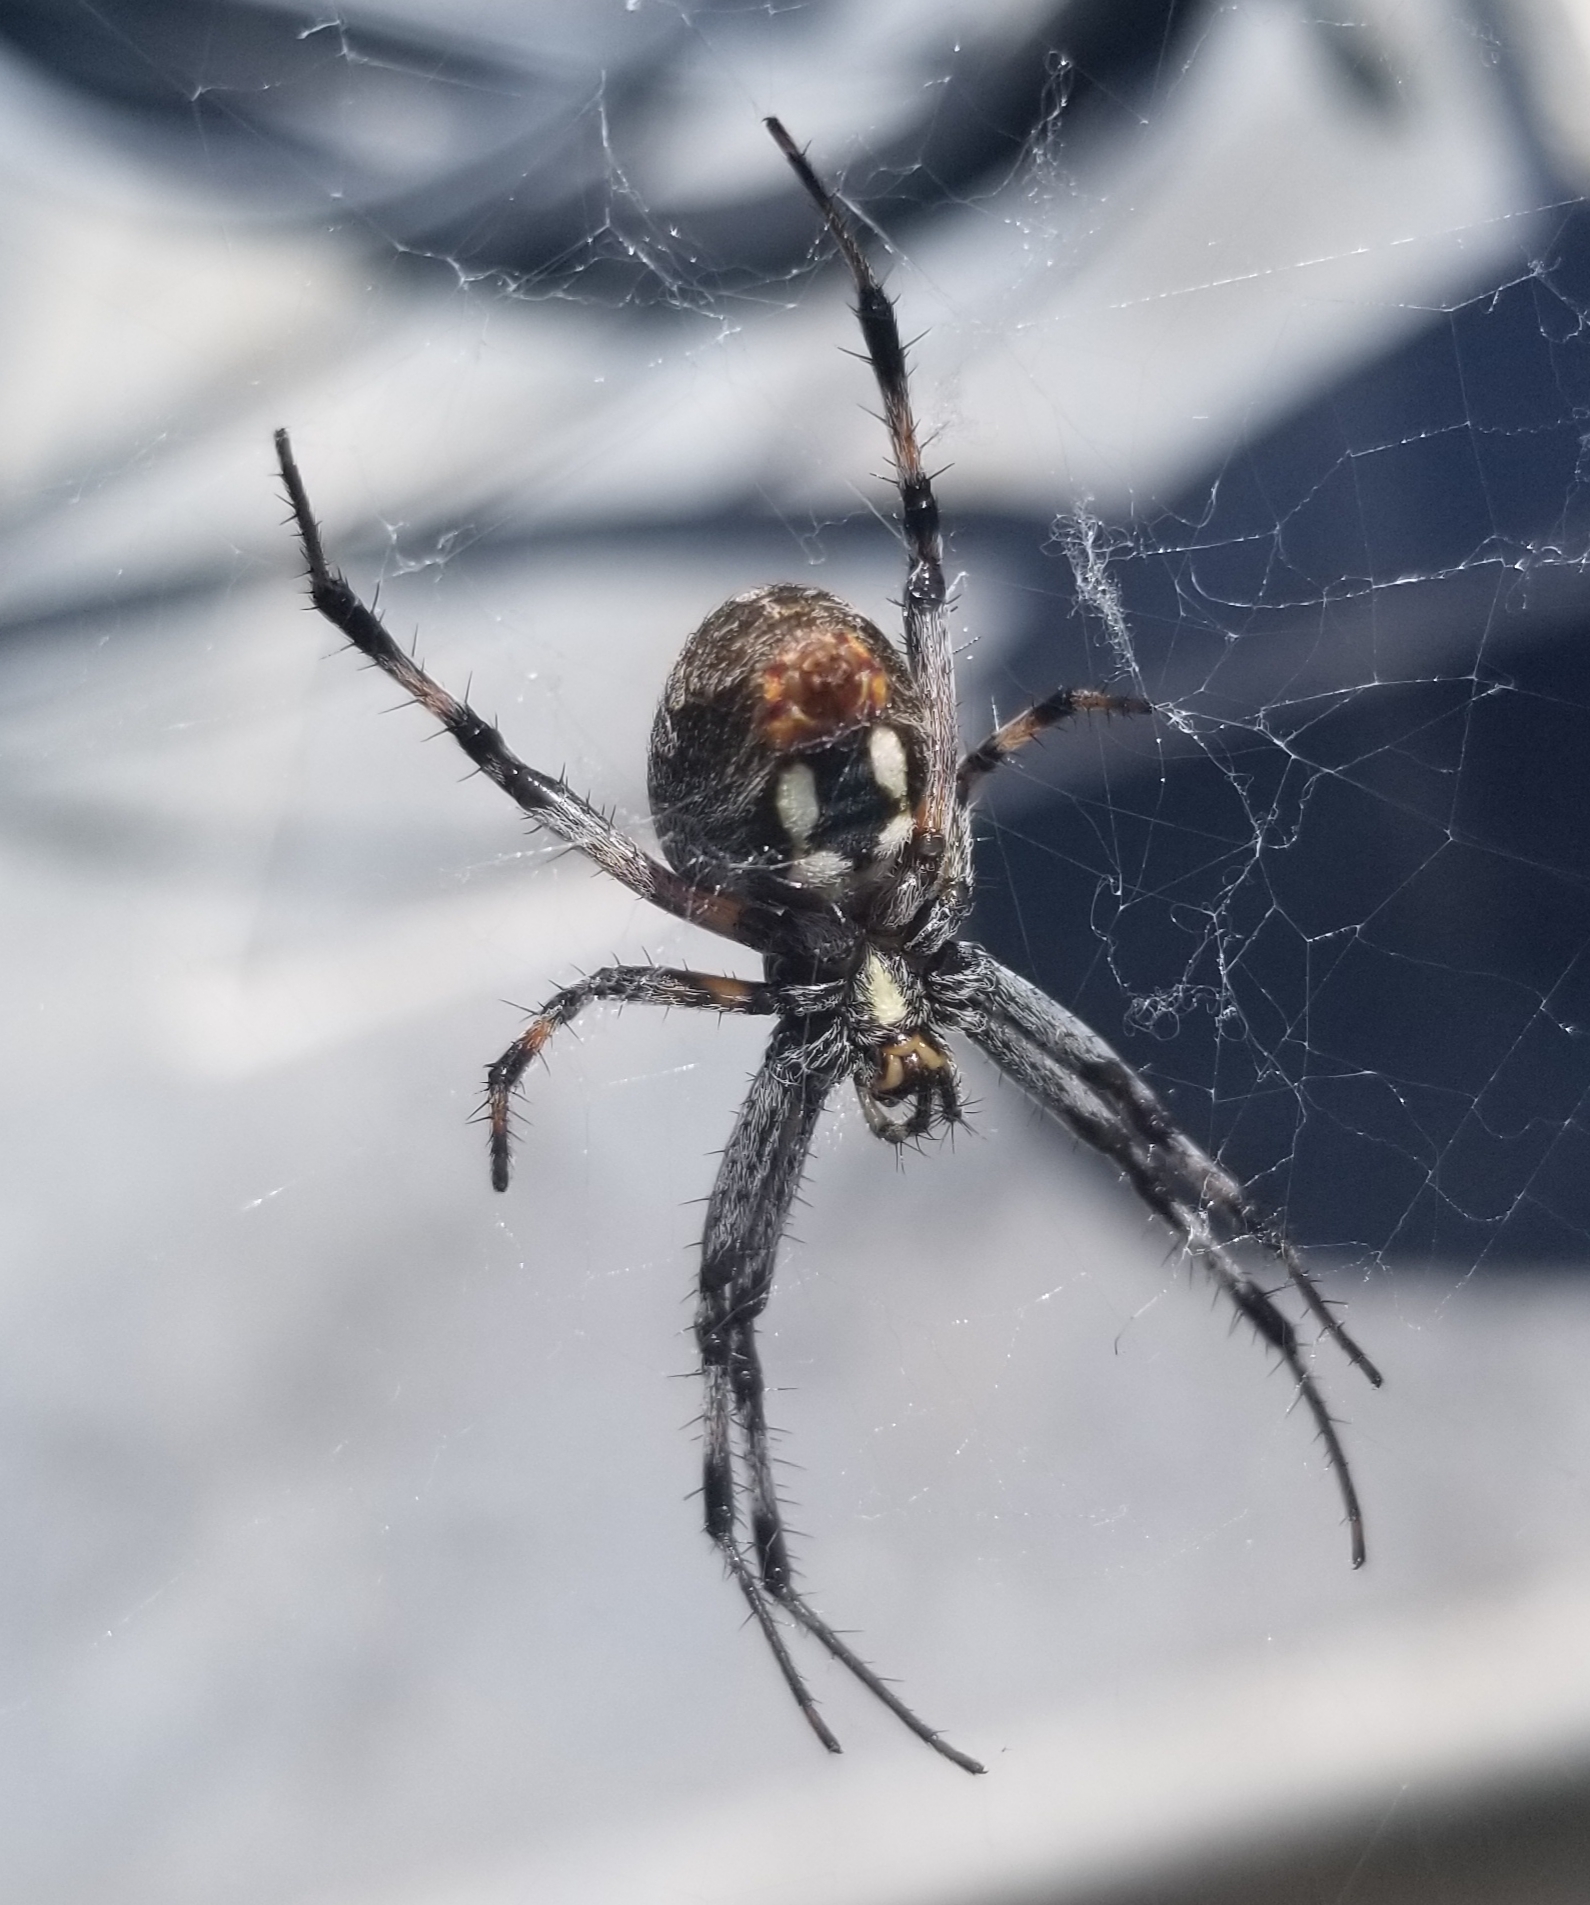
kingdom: Animalia
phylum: Arthropoda
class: Arachnida
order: Araneae
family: Araneidae
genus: Neoscona
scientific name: Neoscona oaxacensis
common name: Orb weavers
